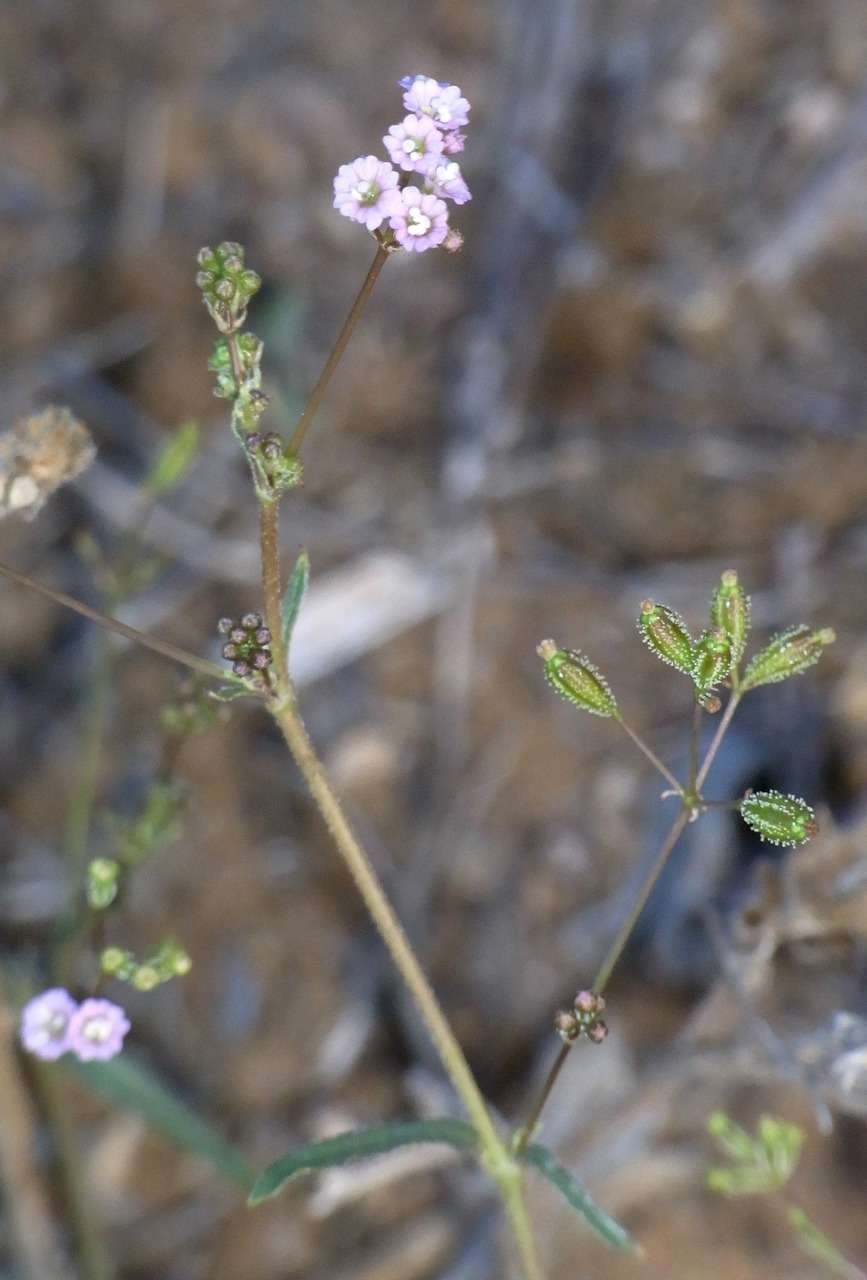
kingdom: Plantae
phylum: Tracheophyta
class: Magnoliopsida
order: Caryophyllales
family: Nyctaginaceae
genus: Boerhavia
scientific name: Boerhavia dominii
